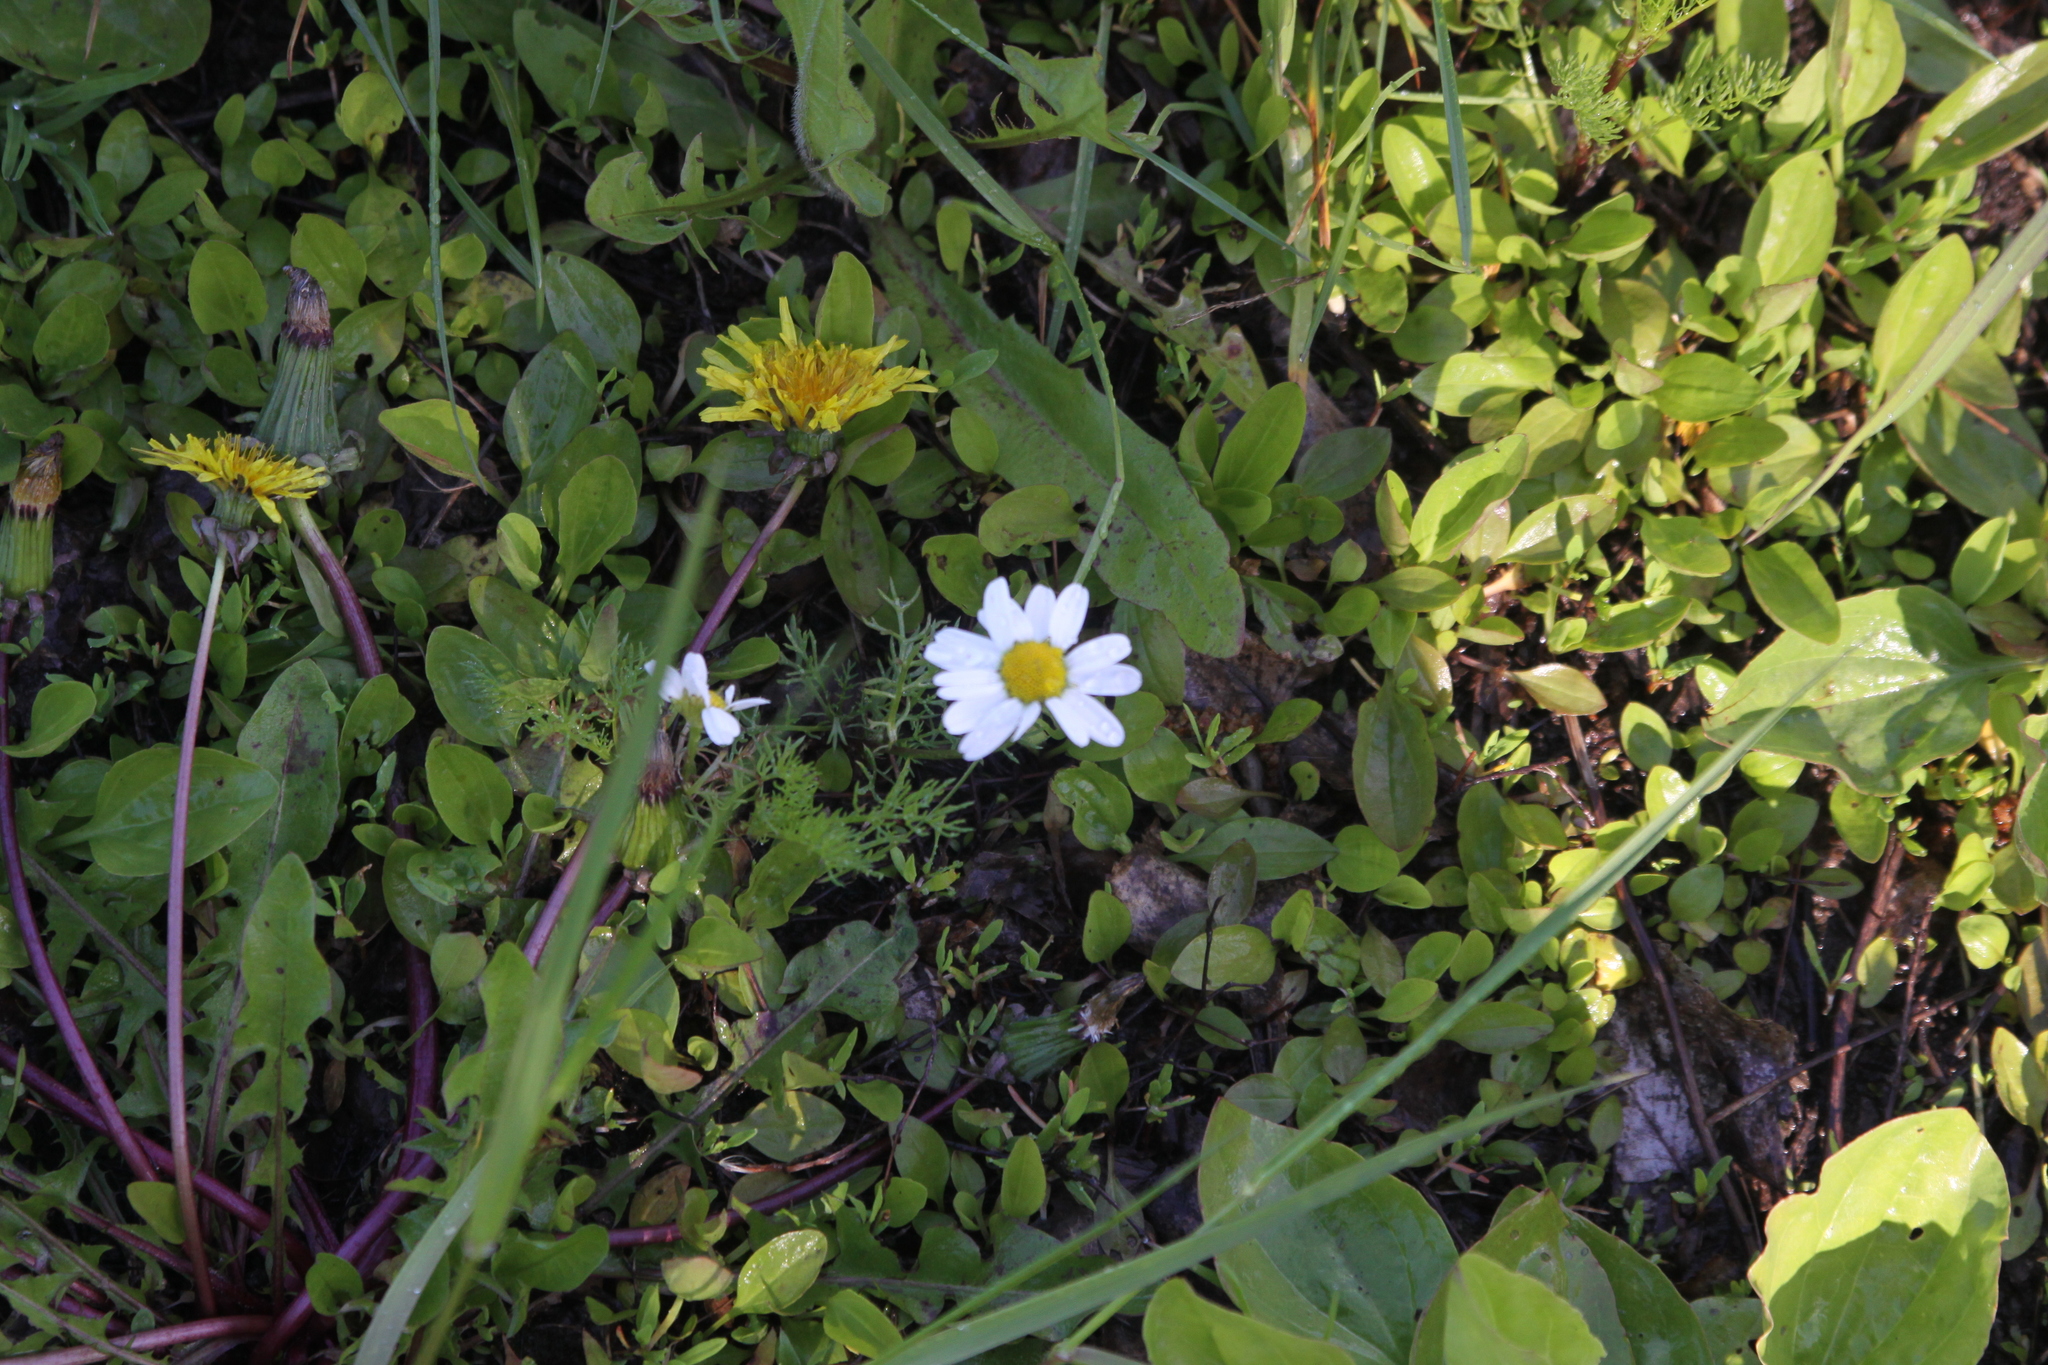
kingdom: Plantae
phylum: Tracheophyta
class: Magnoliopsida
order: Asterales
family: Asteraceae
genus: Tripleurospermum
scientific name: Tripleurospermum inodorum
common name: Scentless mayweed
